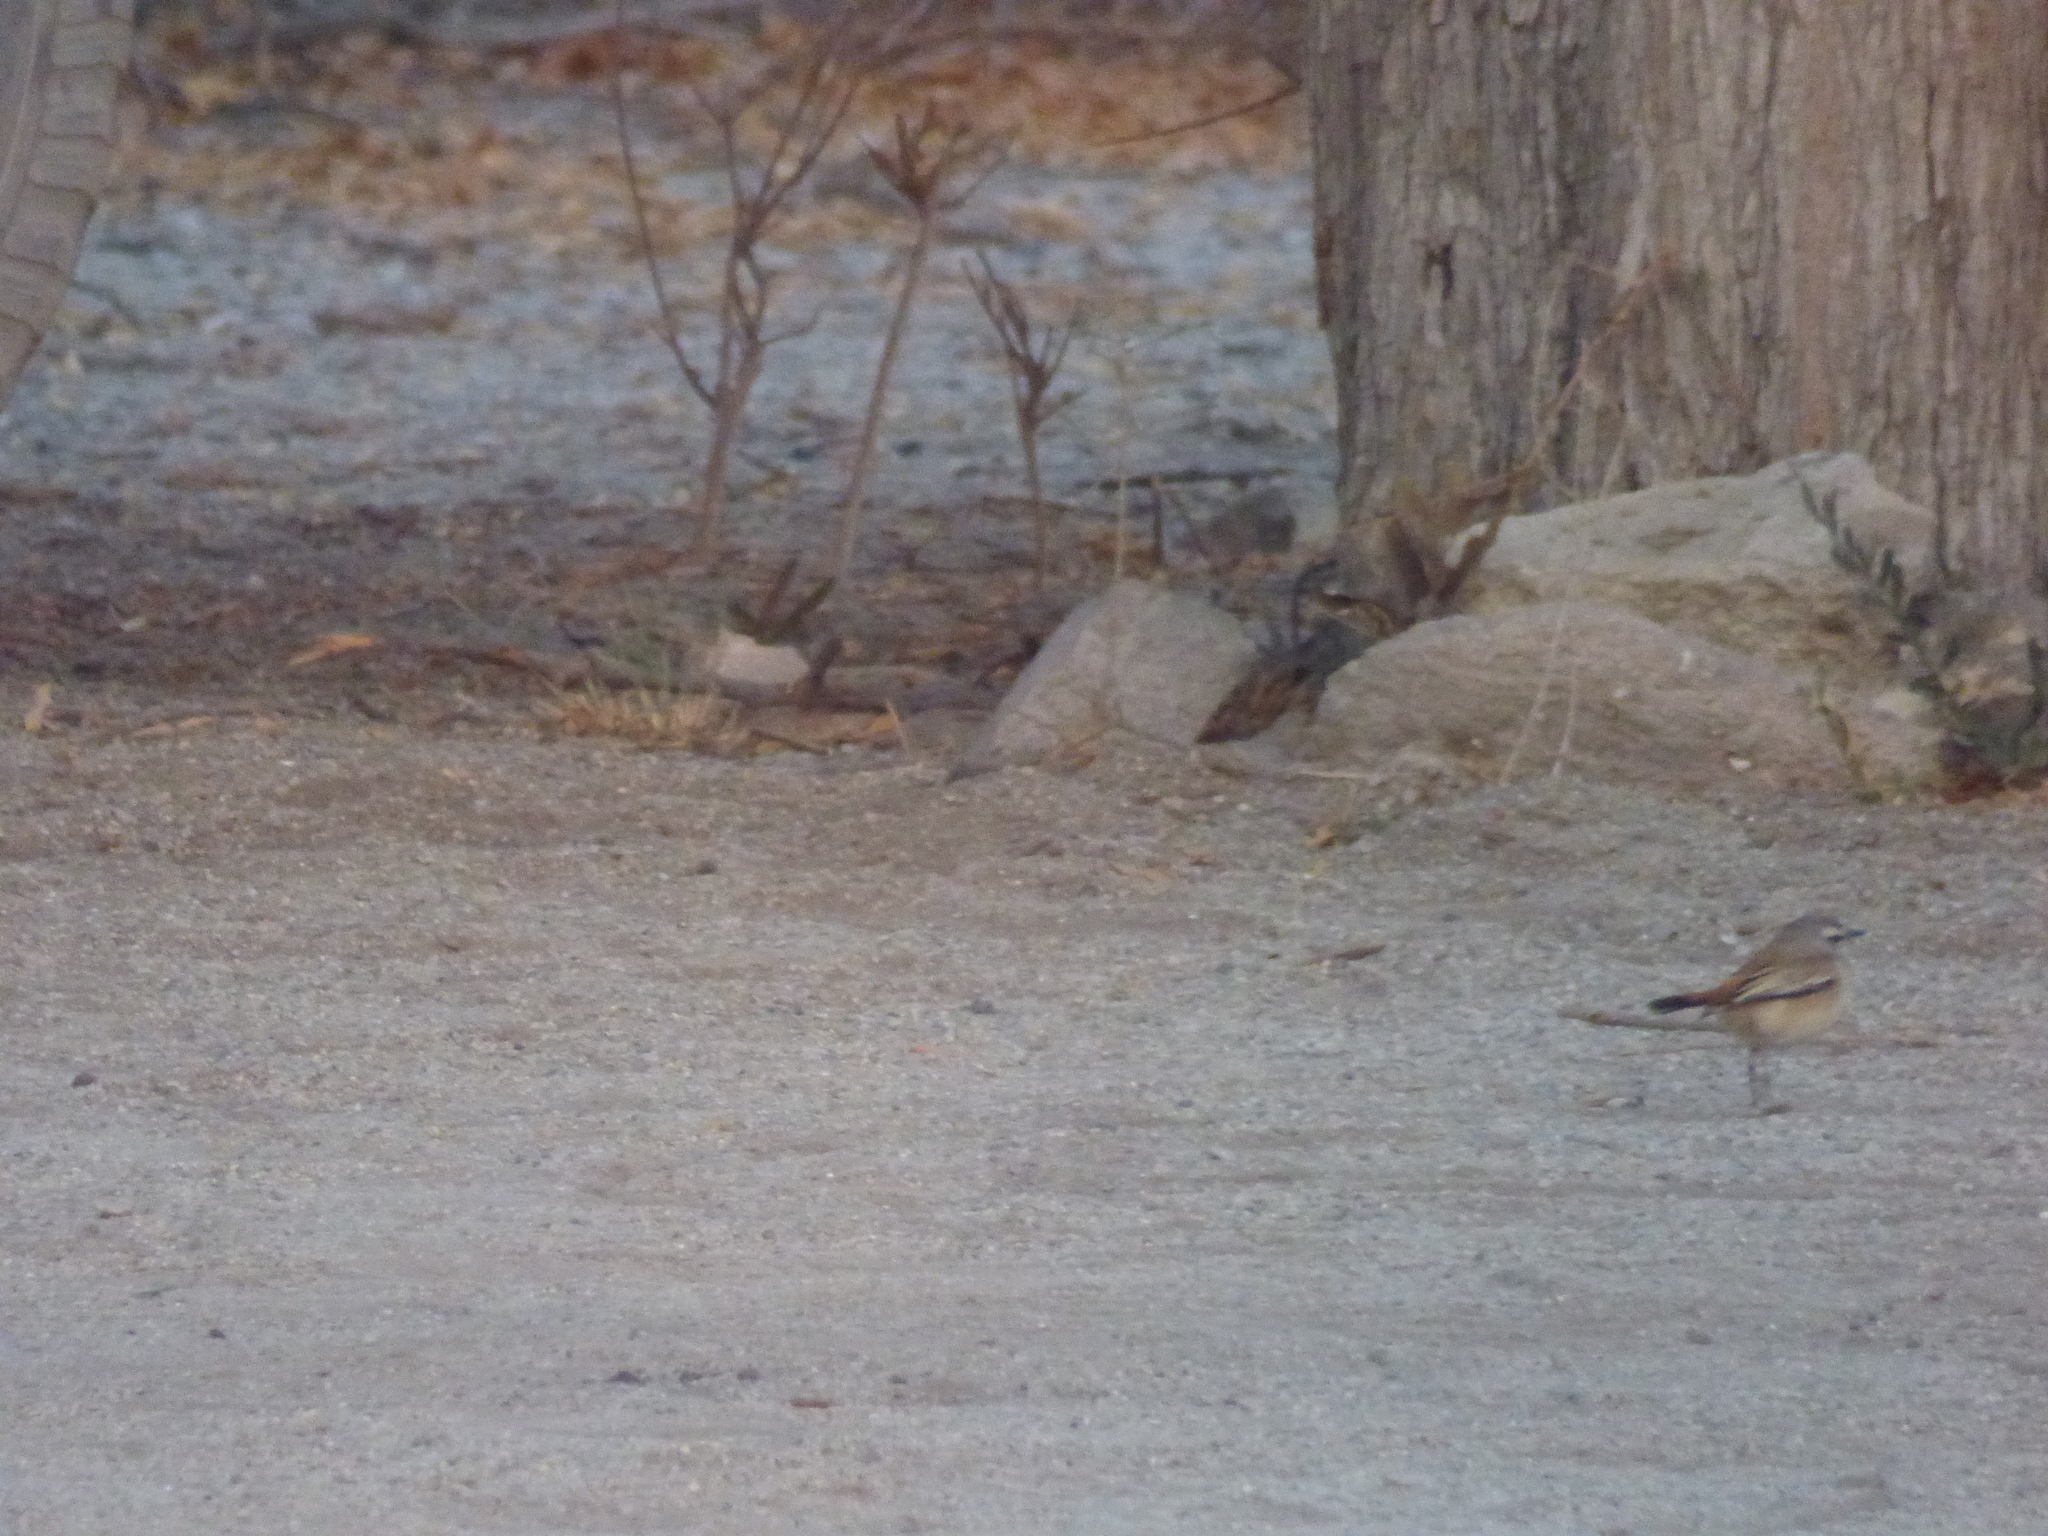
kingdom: Animalia
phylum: Chordata
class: Aves
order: Passeriformes
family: Muscicapidae
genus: Erythropygia
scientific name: Erythropygia paena
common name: Kalahari scrub robin
